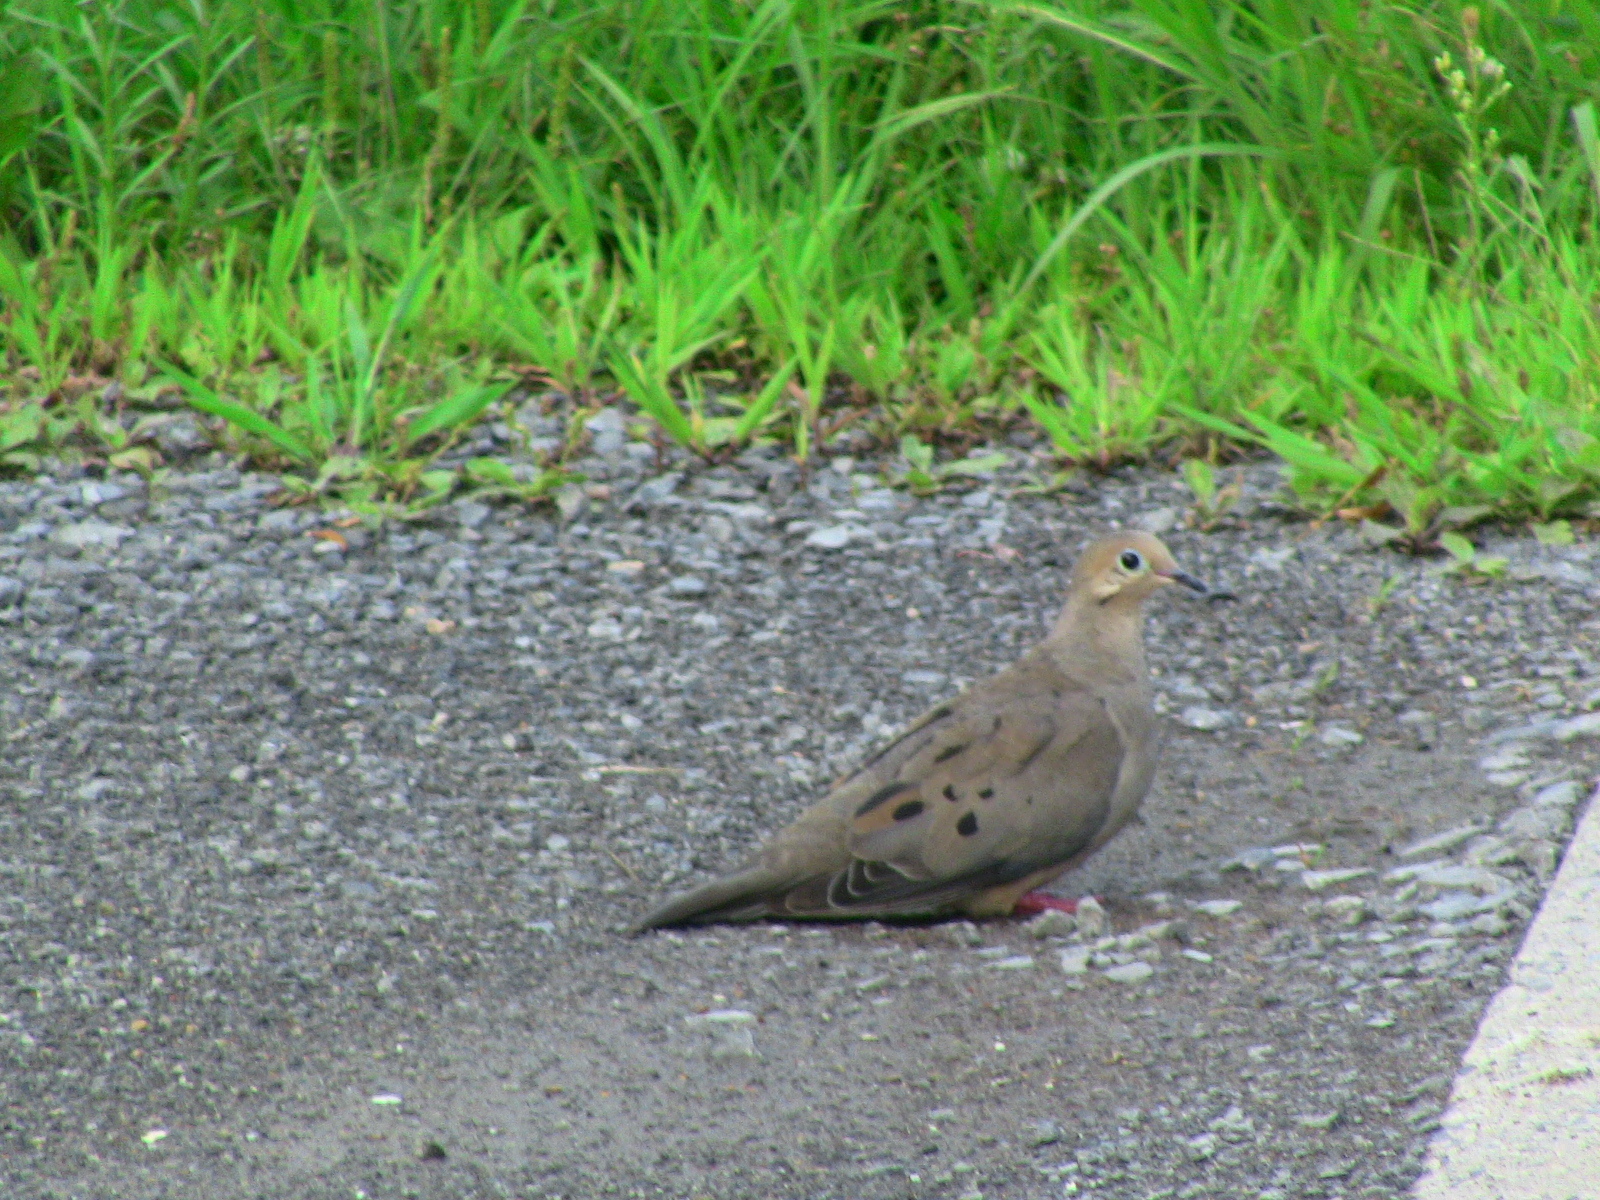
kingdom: Animalia
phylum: Chordata
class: Aves
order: Columbiformes
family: Columbidae
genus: Zenaida
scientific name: Zenaida macroura
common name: Mourning dove
